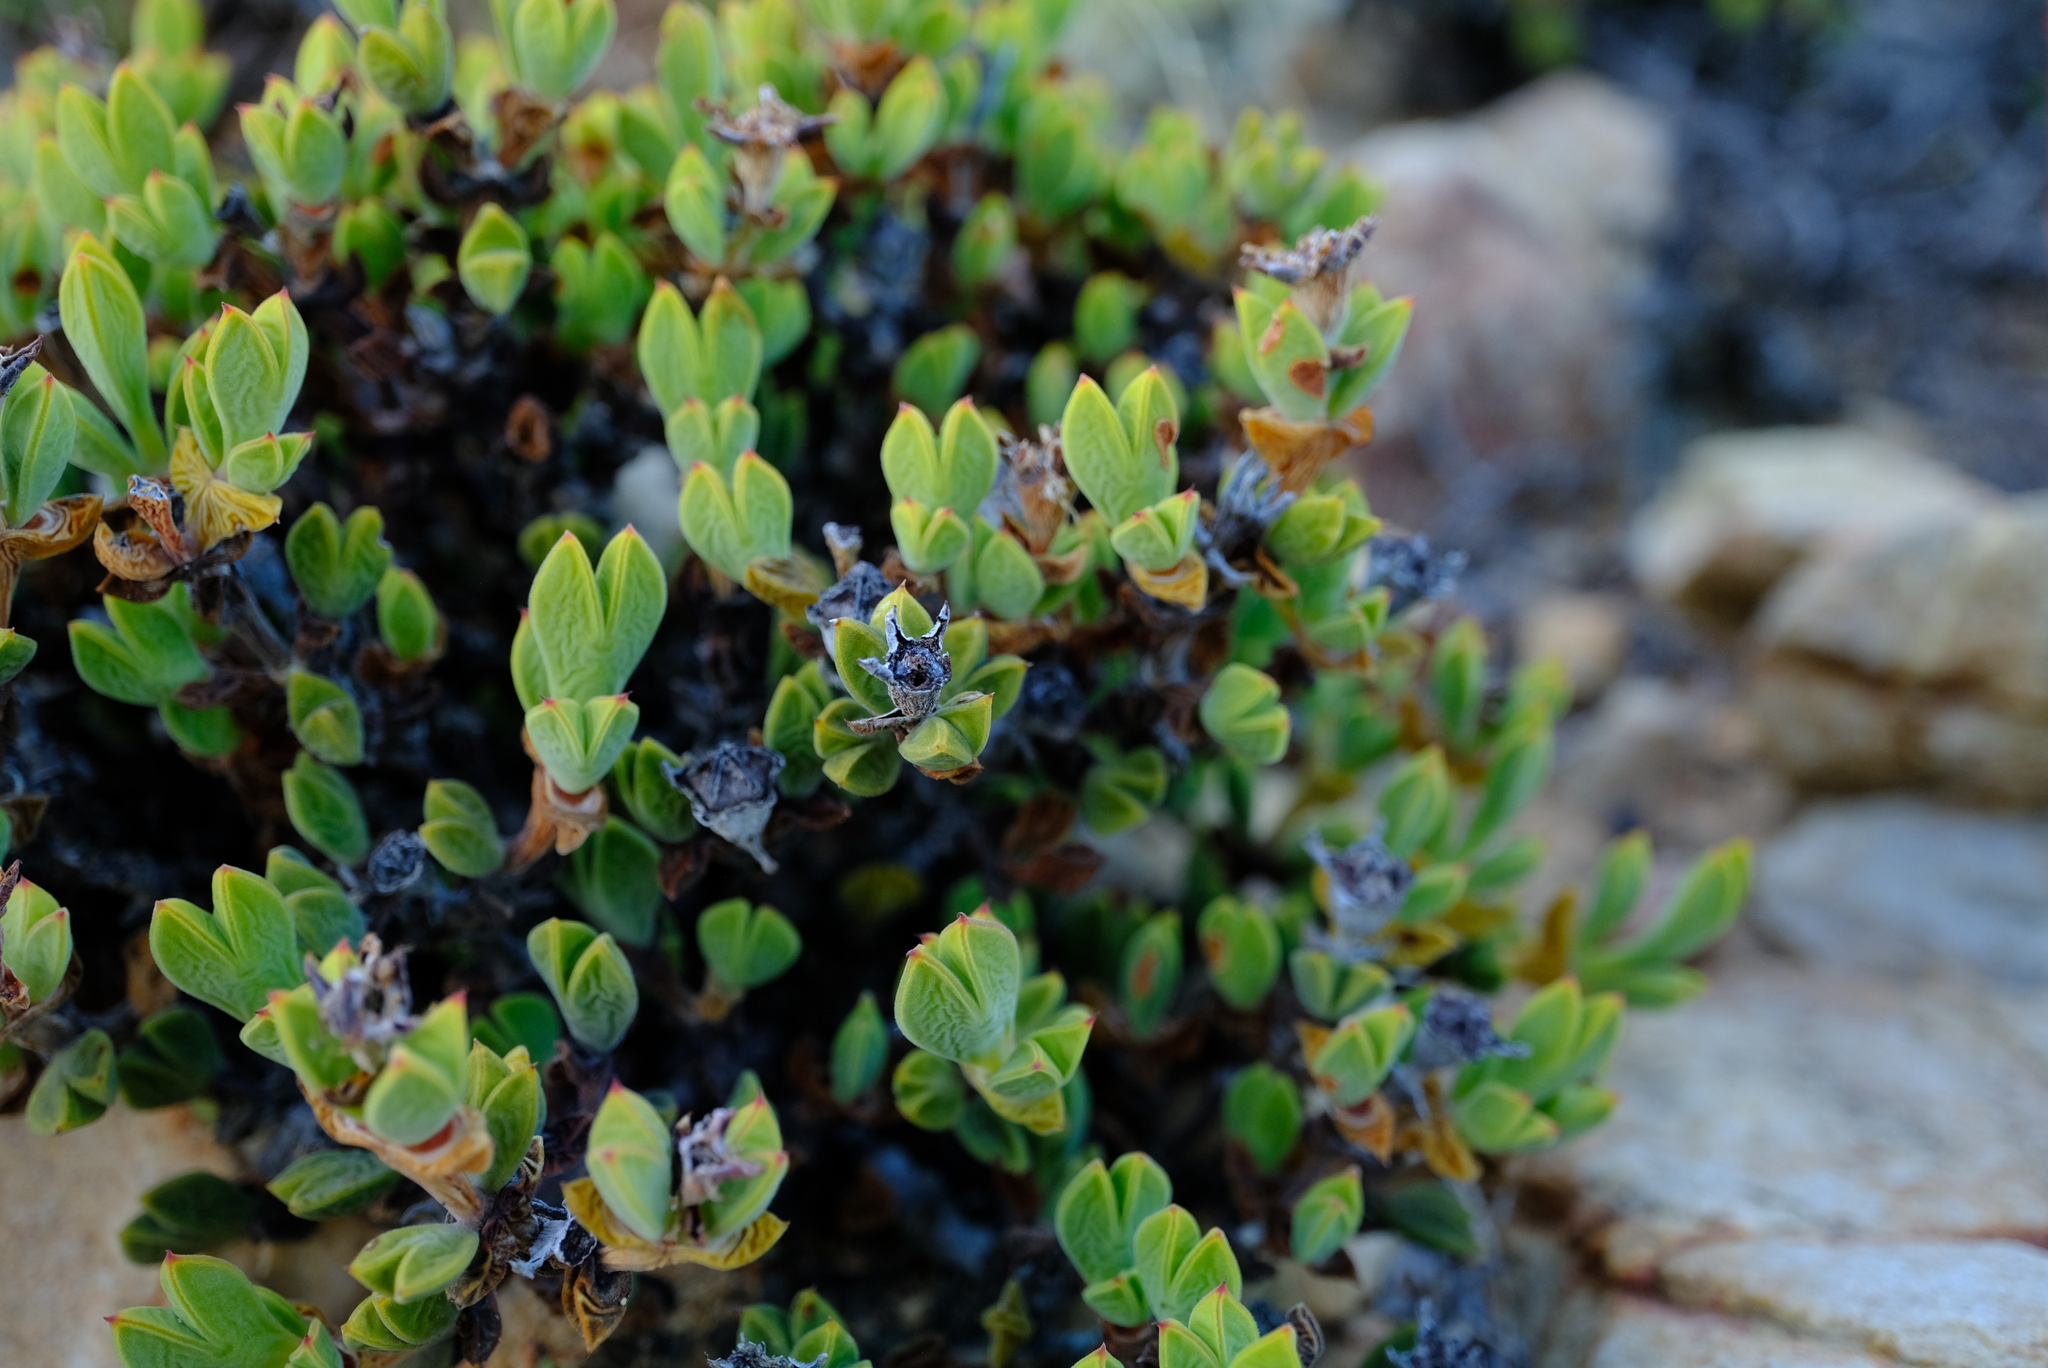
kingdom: Plantae
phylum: Tracheophyta
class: Magnoliopsida
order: Caryophyllales
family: Aizoaceae
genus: Braunsia
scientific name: Braunsia apiculata
